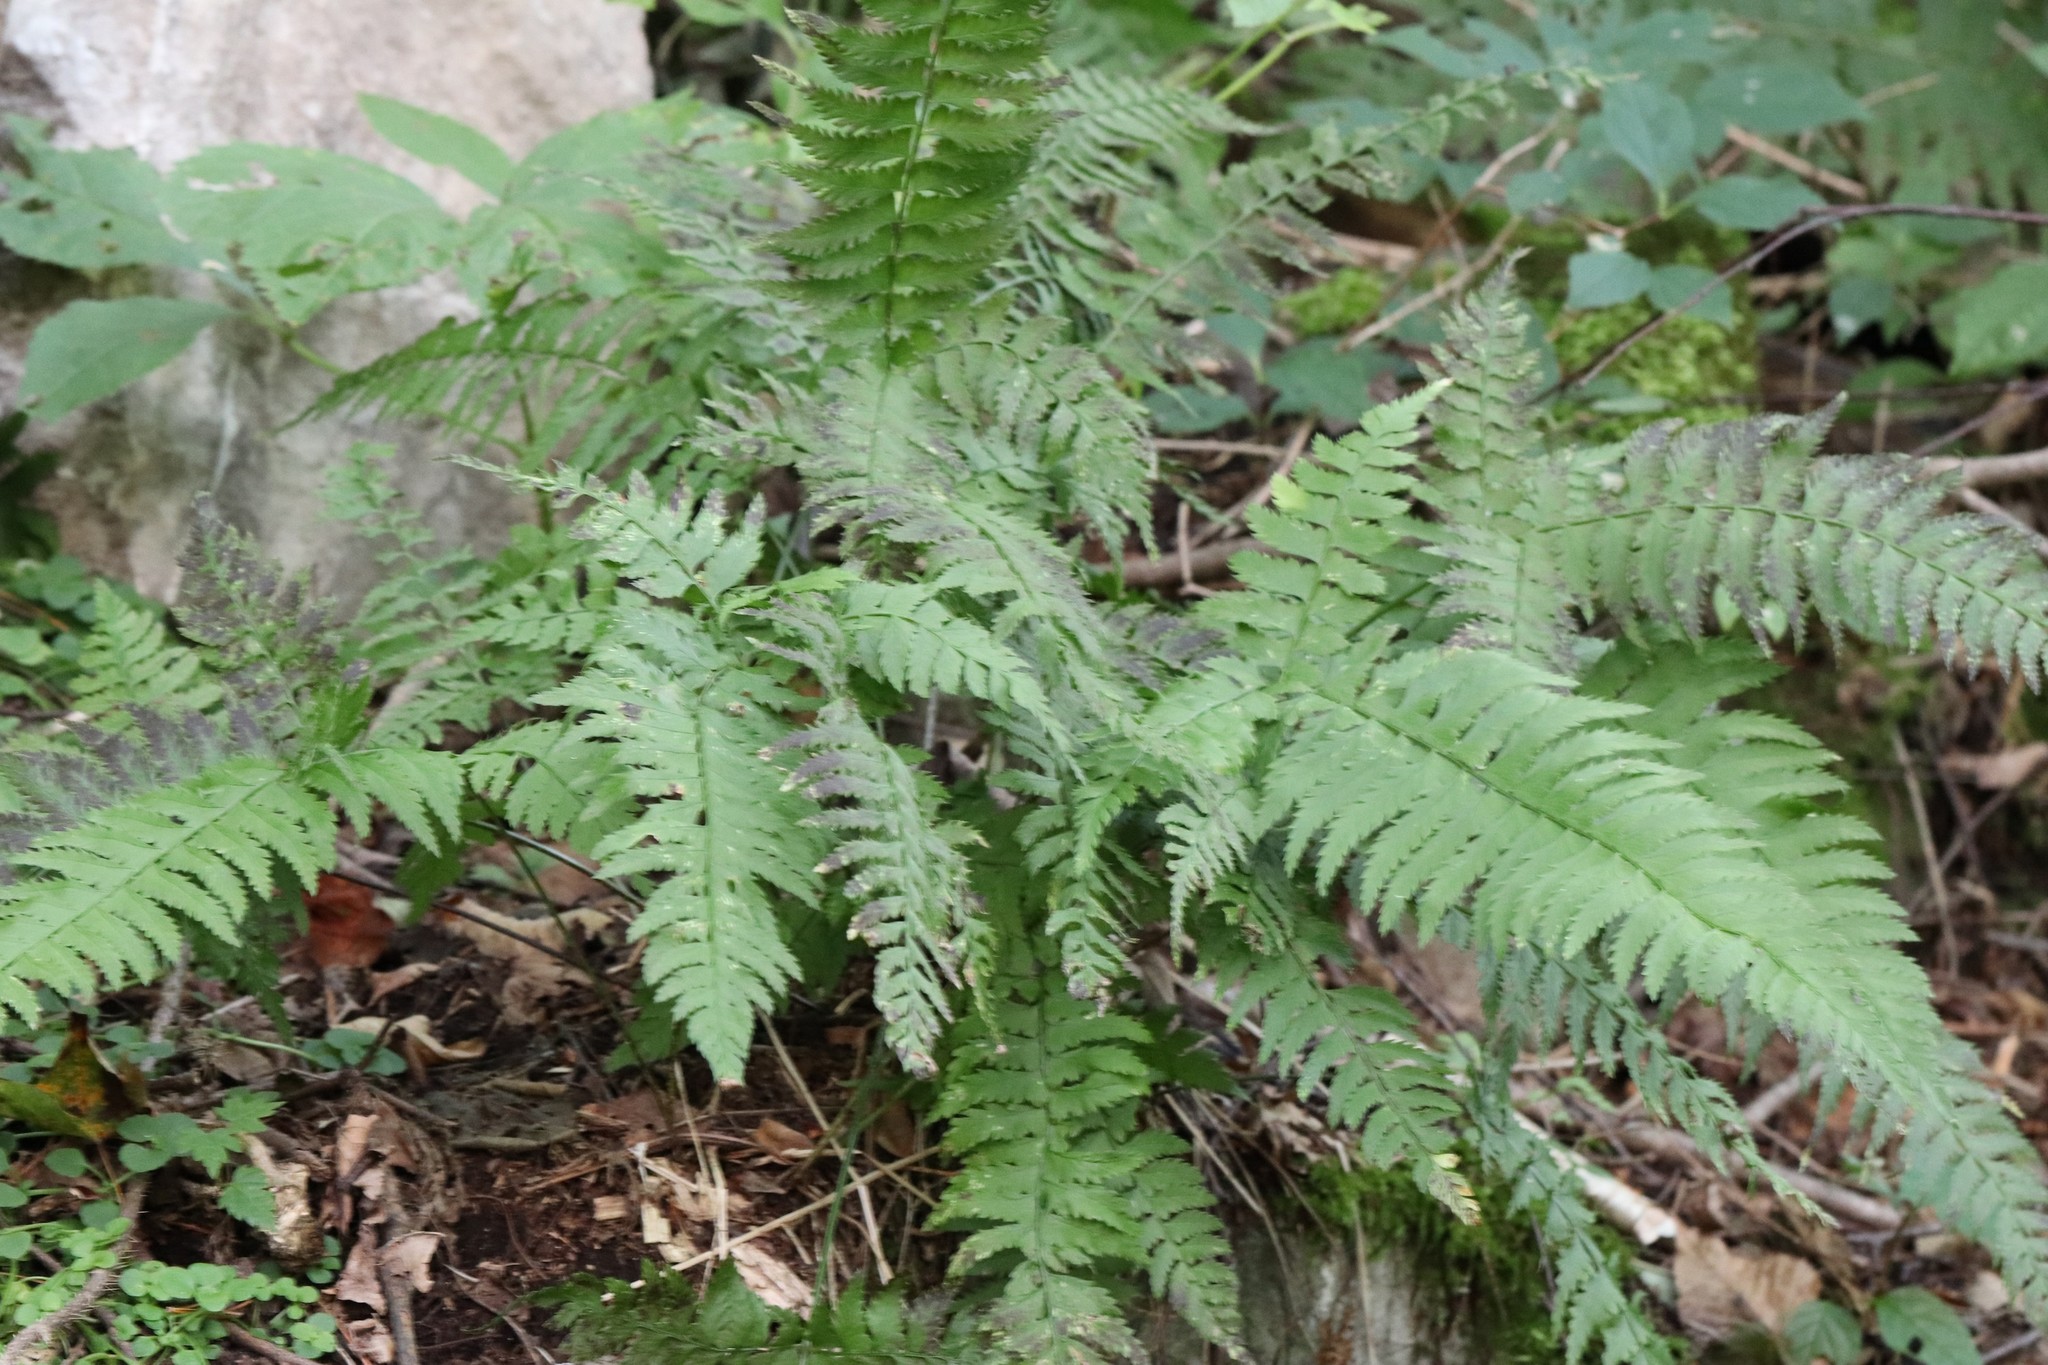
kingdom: Plantae
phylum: Tracheophyta
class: Polypodiopsida
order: Polypodiales
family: Dryopteridaceae
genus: Polystichum
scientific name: Polystichum tripteron
